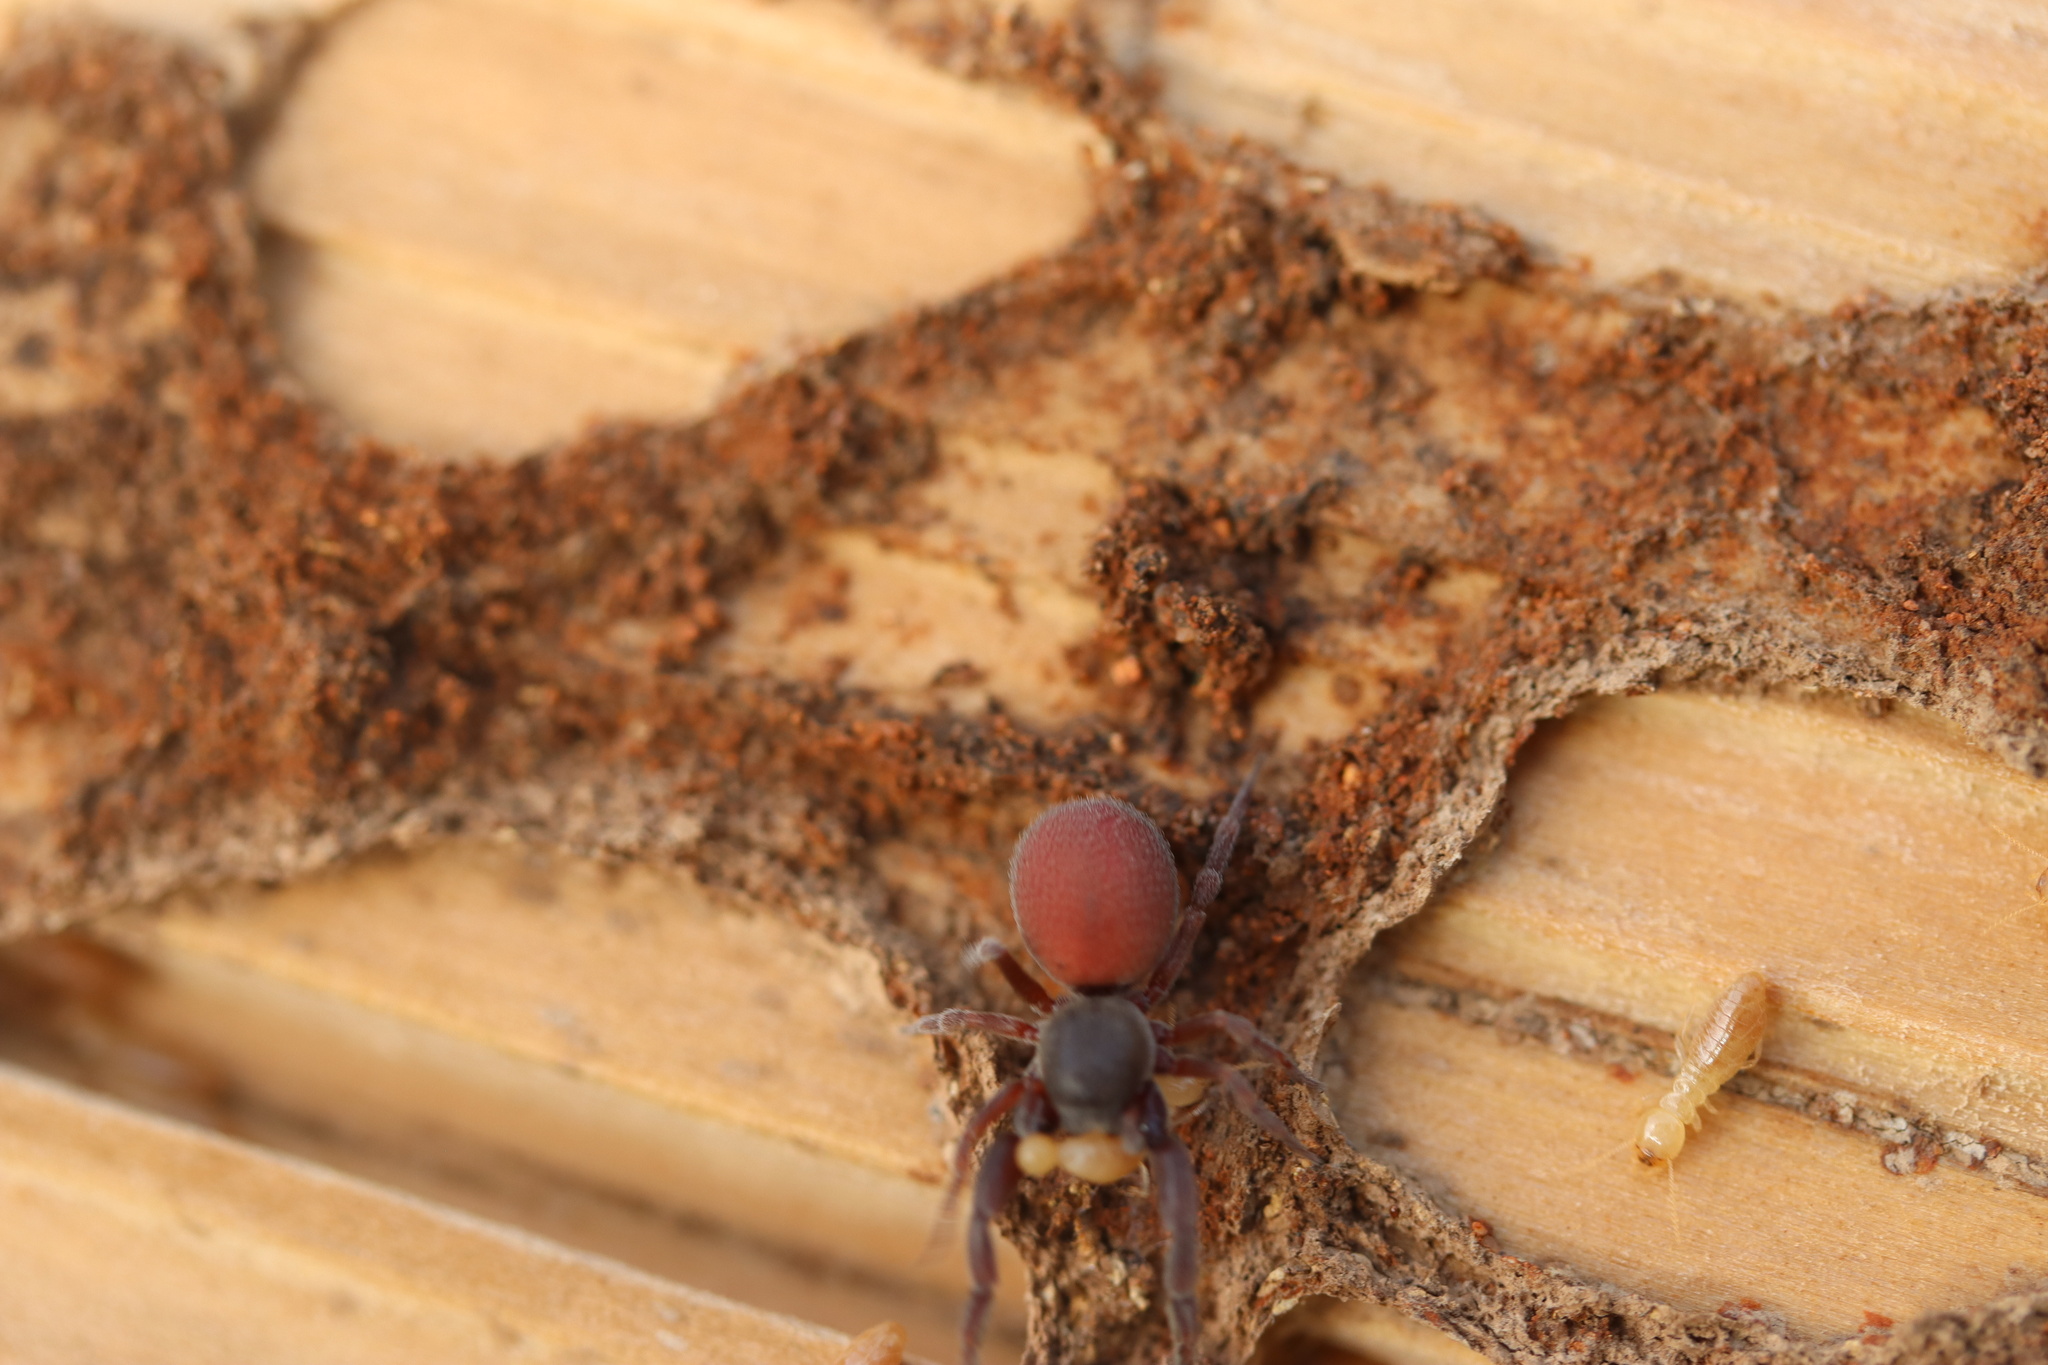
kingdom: Animalia
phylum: Arthropoda
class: Arachnida
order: Araneae
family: Palpimanidae
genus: Palpimanus
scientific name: Palpimanus
